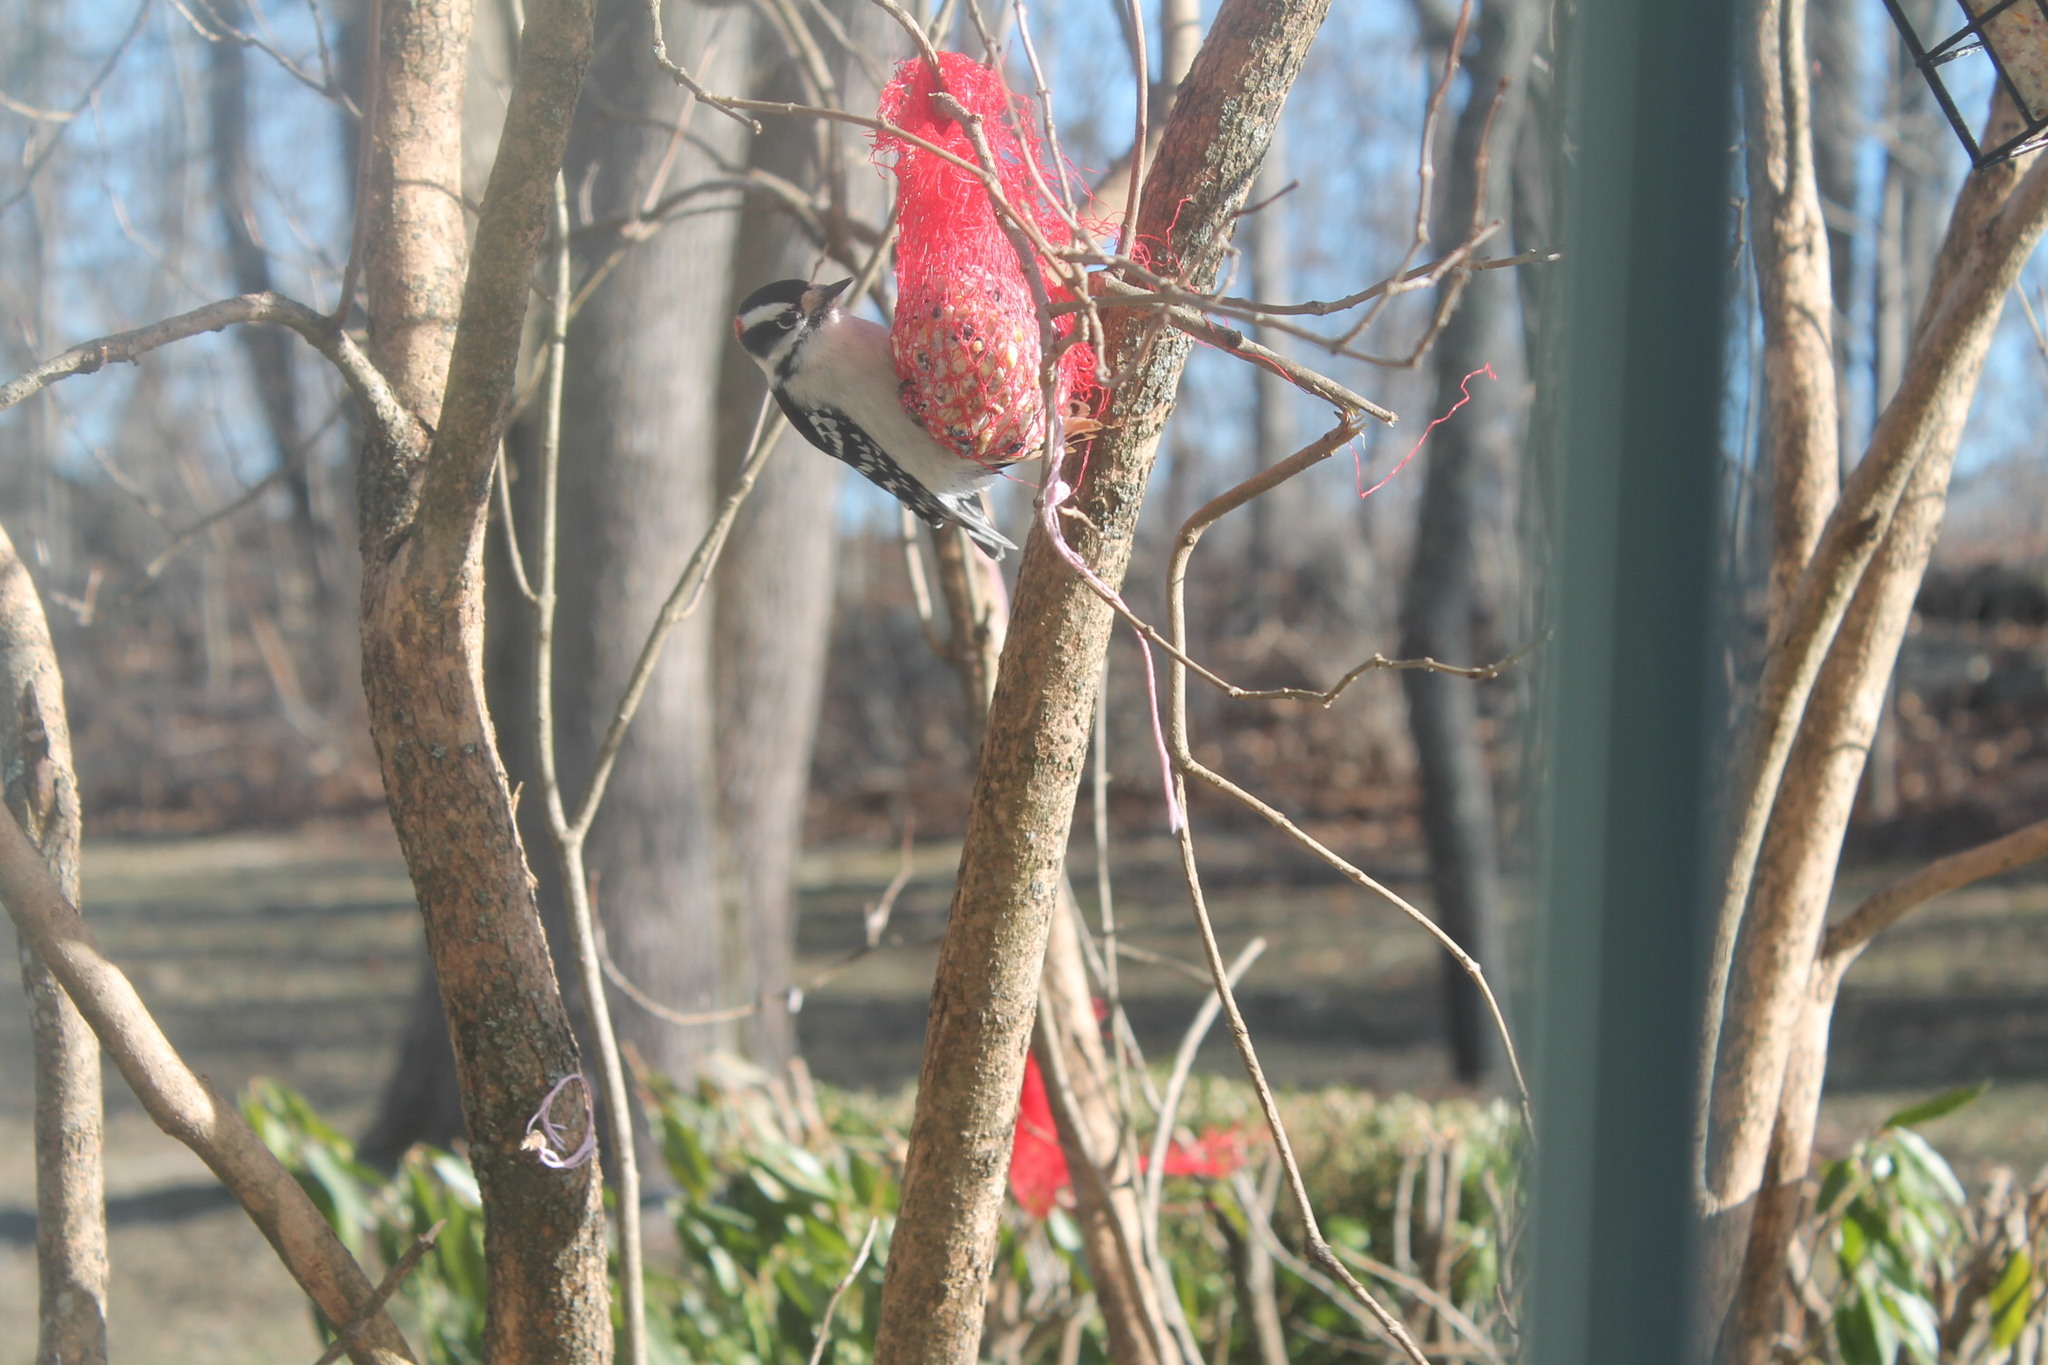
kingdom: Animalia
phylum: Chordata
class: Aves
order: Piciformes
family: Picidae
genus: Dryobates
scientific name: Dryobates pubescens
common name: Downy woodpecker
